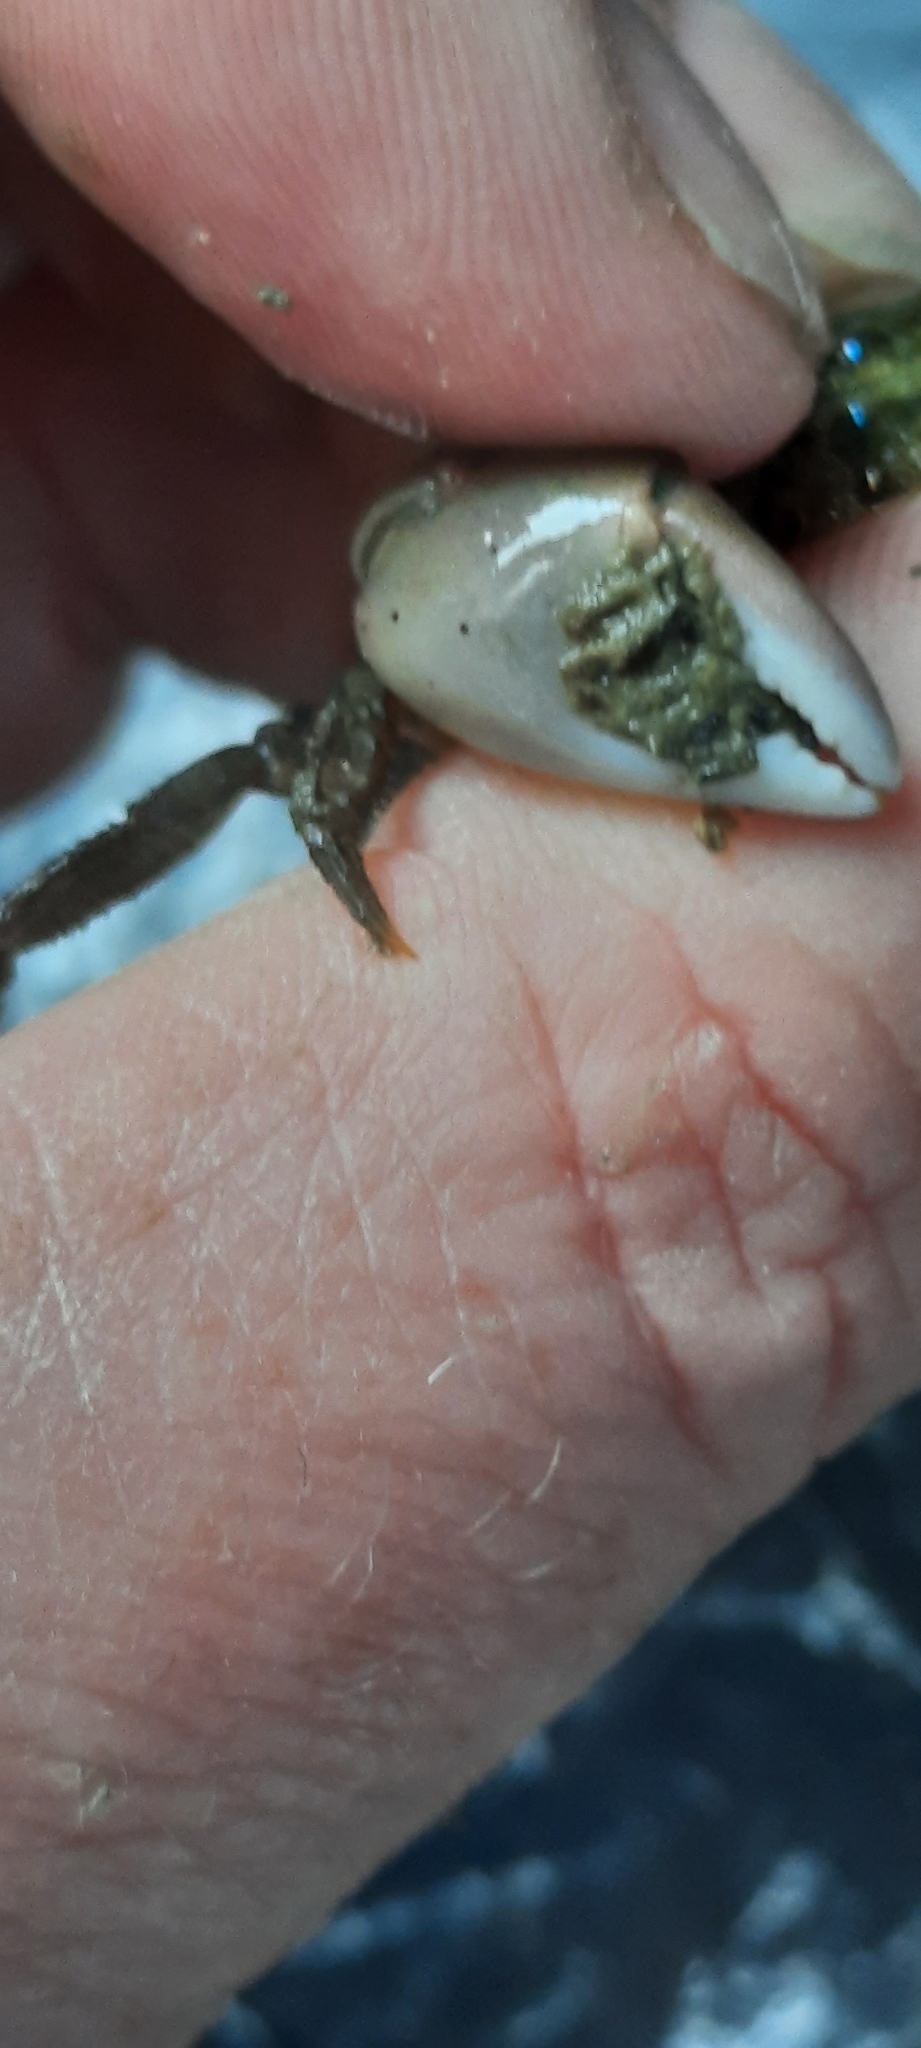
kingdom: Animalia
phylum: Arthropoda
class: Malacostraca
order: Decapoda
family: Varunidae
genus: Hemigrapsus
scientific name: Hemigrapsus takanoi
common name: Asian brush crab
